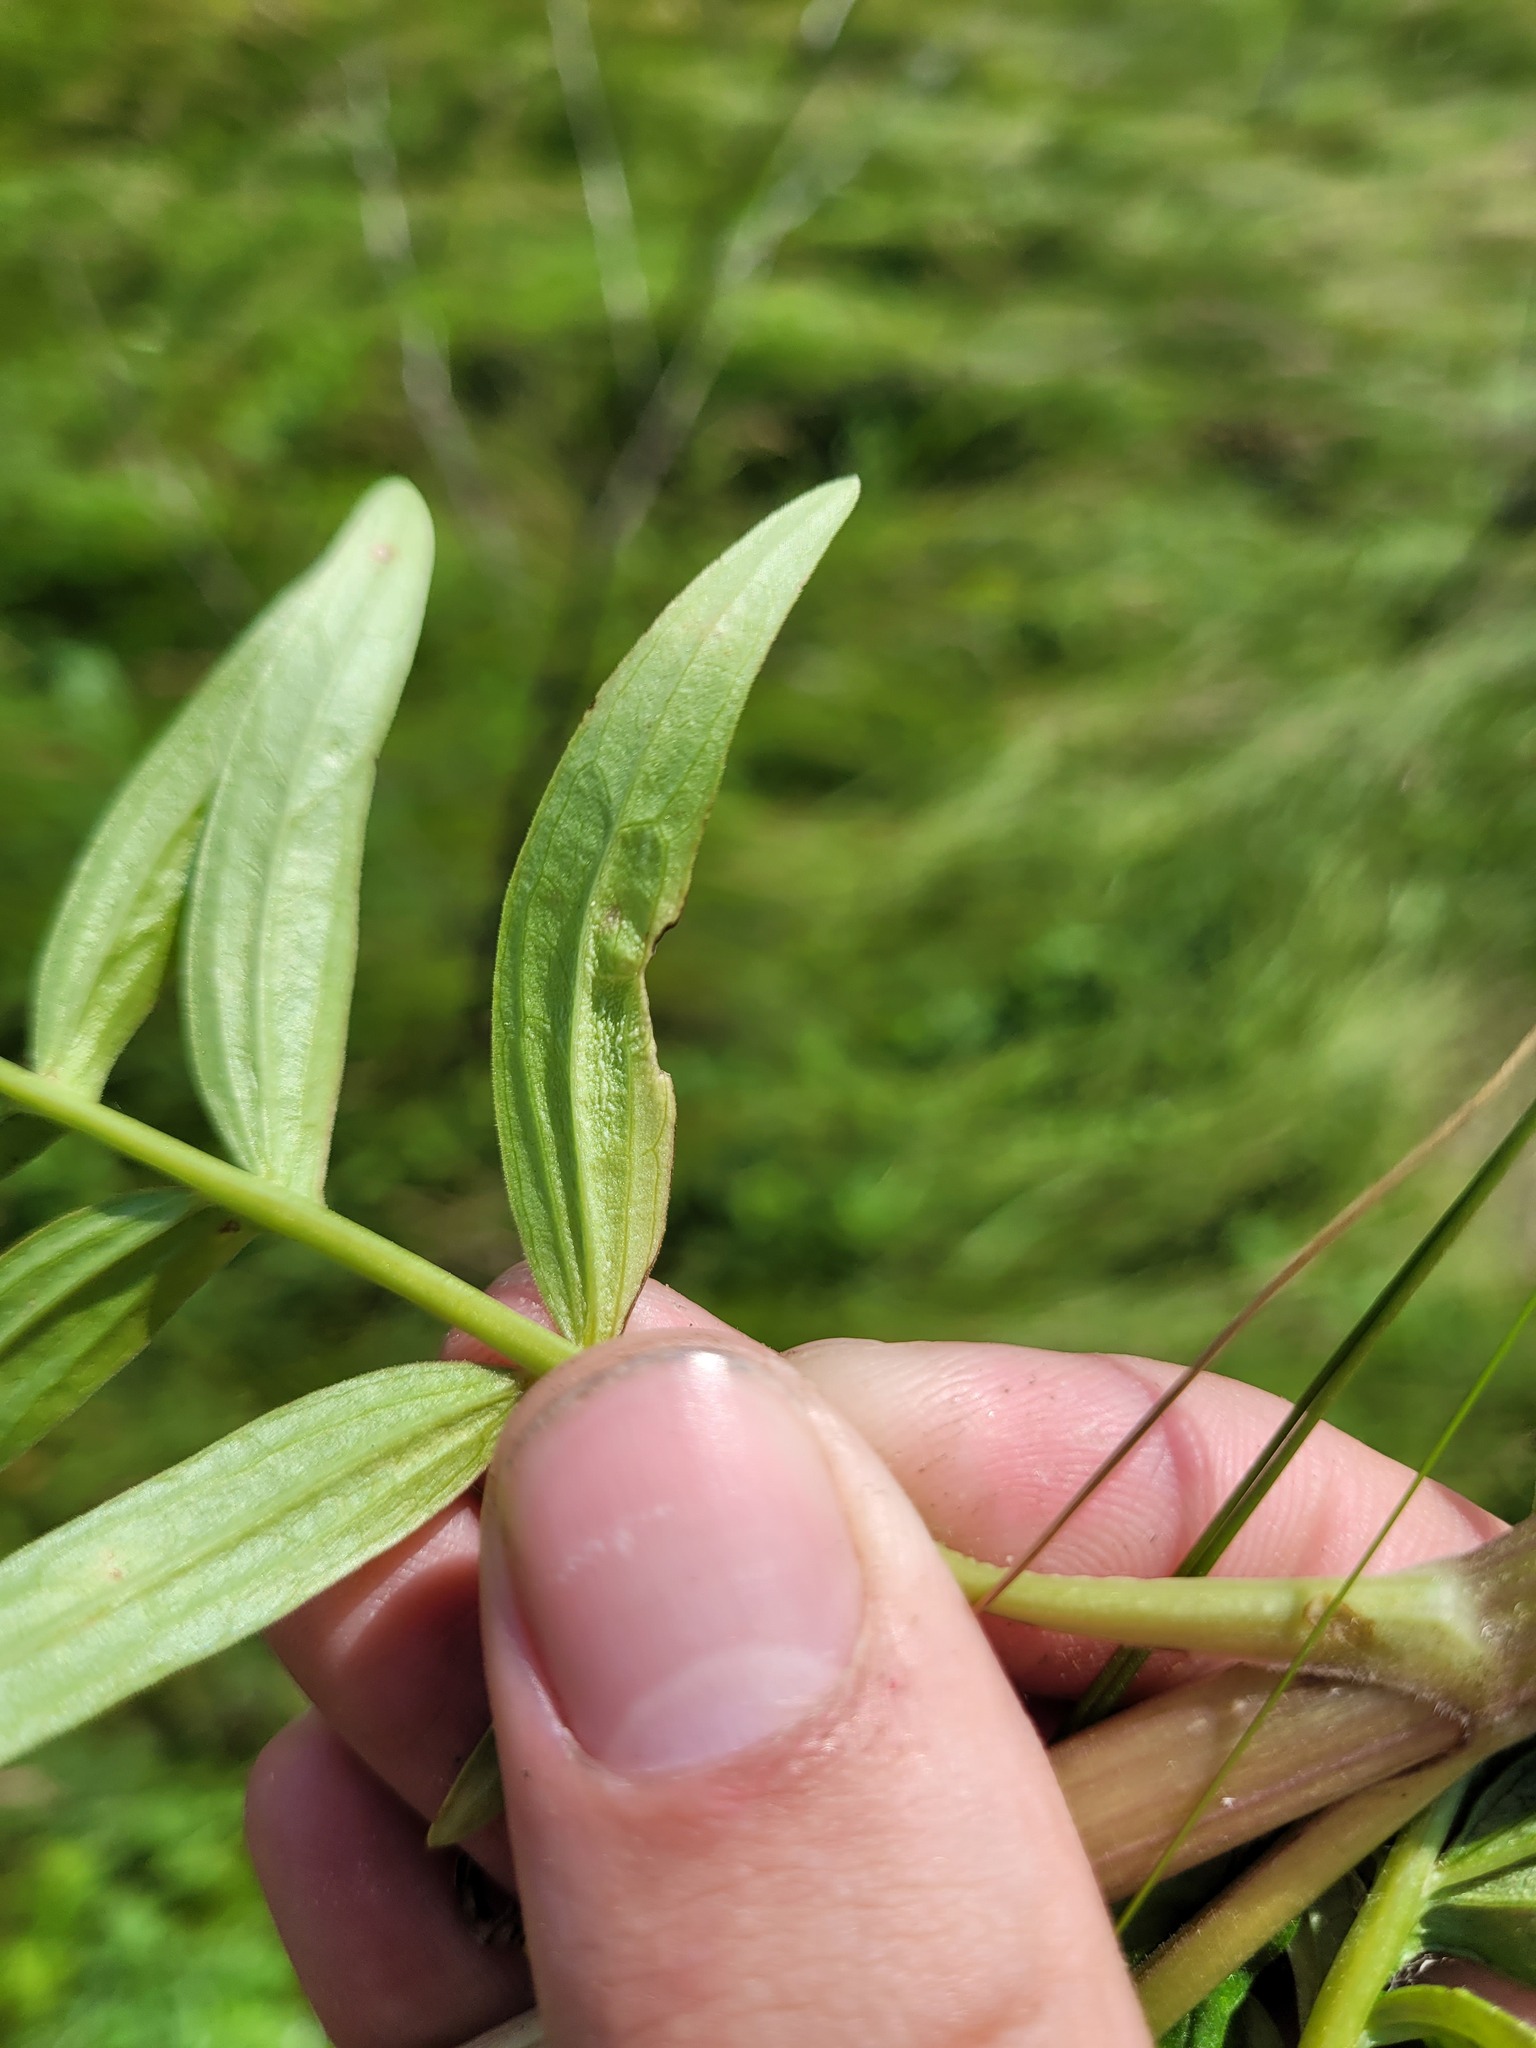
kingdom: Plantae
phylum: Tracheophyta
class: Magnoliopsida
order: Dipsacales
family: Caprifoliaceae
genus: Valeriana
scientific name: Valeriana officinalis
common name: Common valerian
